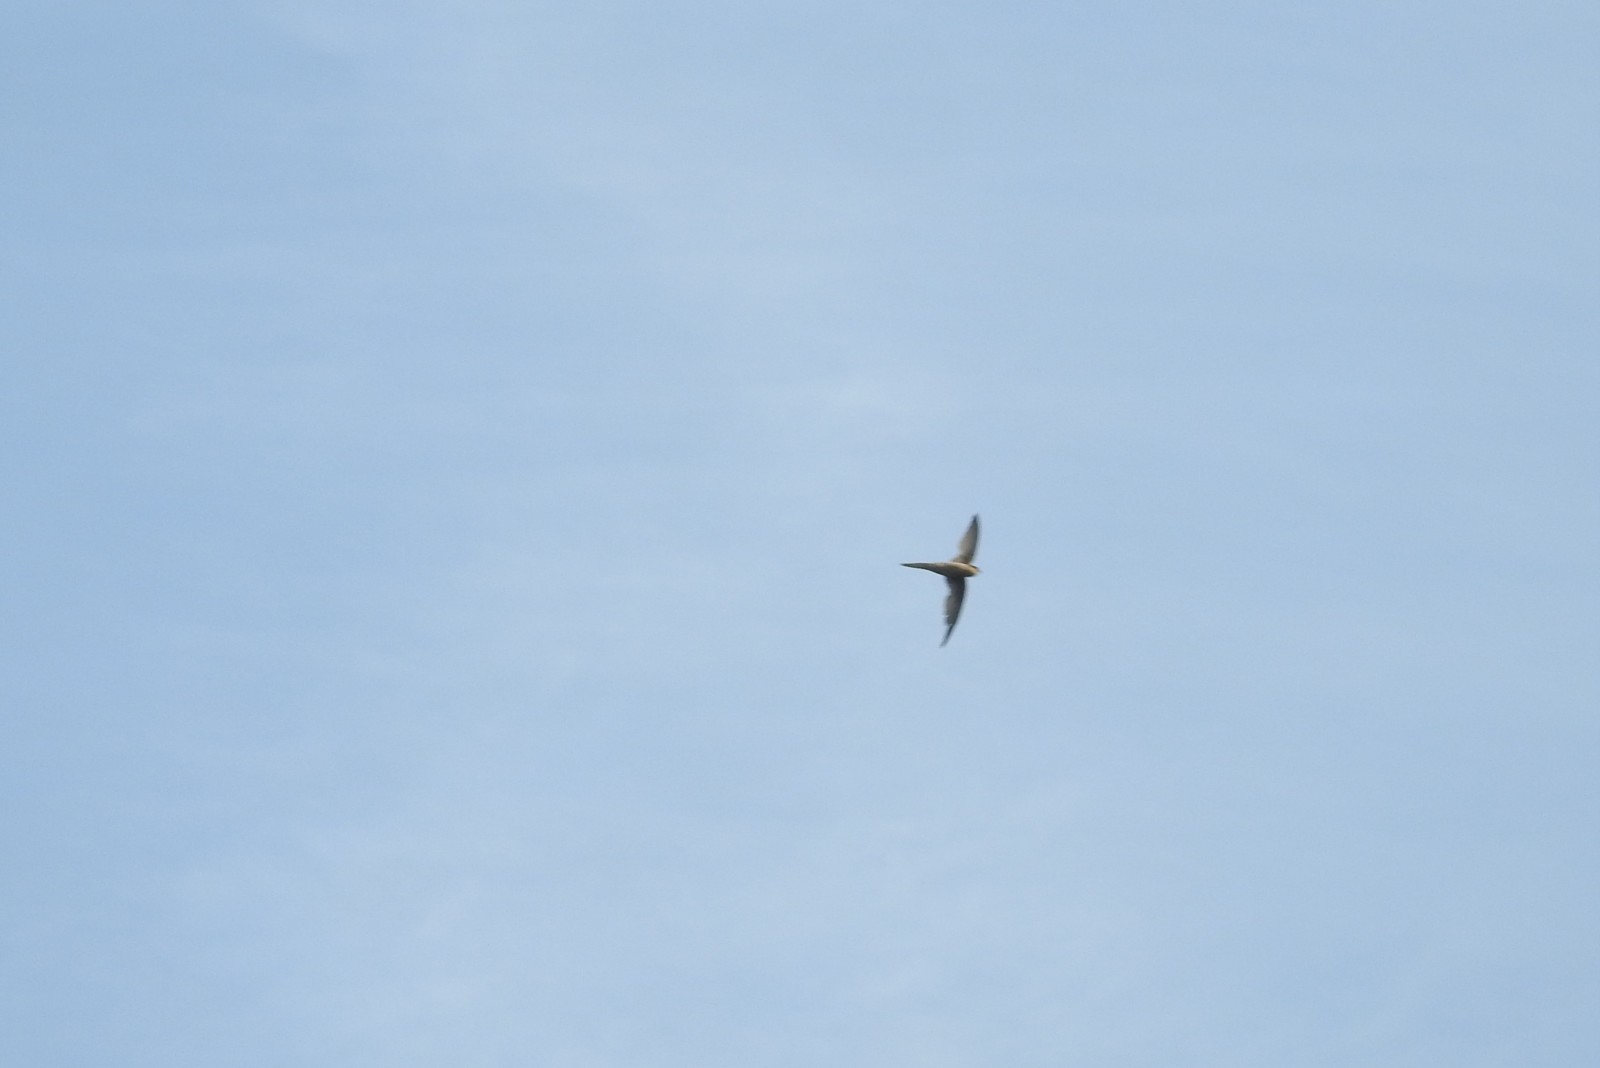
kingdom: Animalia
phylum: Chordata
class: Aves
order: Apodiformes
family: Apodidae
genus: Cypsiurus
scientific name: Cypsiurus balasiensis
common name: Asian palm swift
